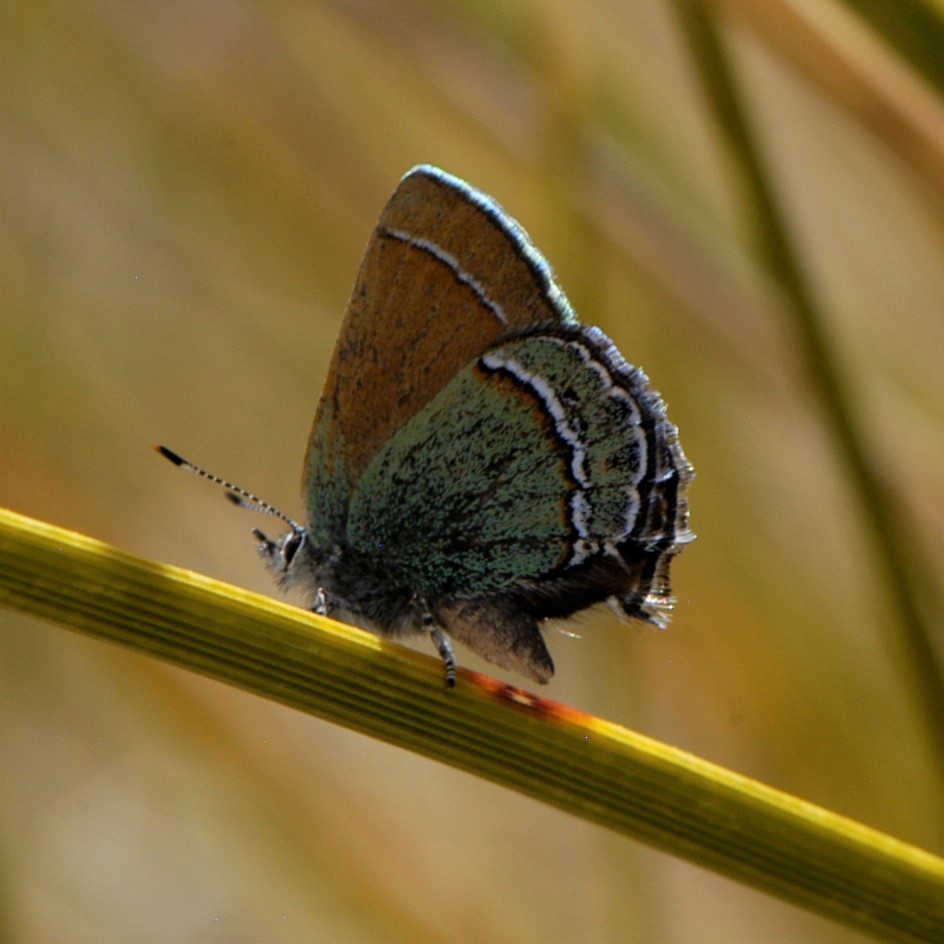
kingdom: Animalia
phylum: Arthropoda
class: Insecta
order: Lepidoptera
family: Lycaenidae
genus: Sandia
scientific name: Sandia mcfarlandi
